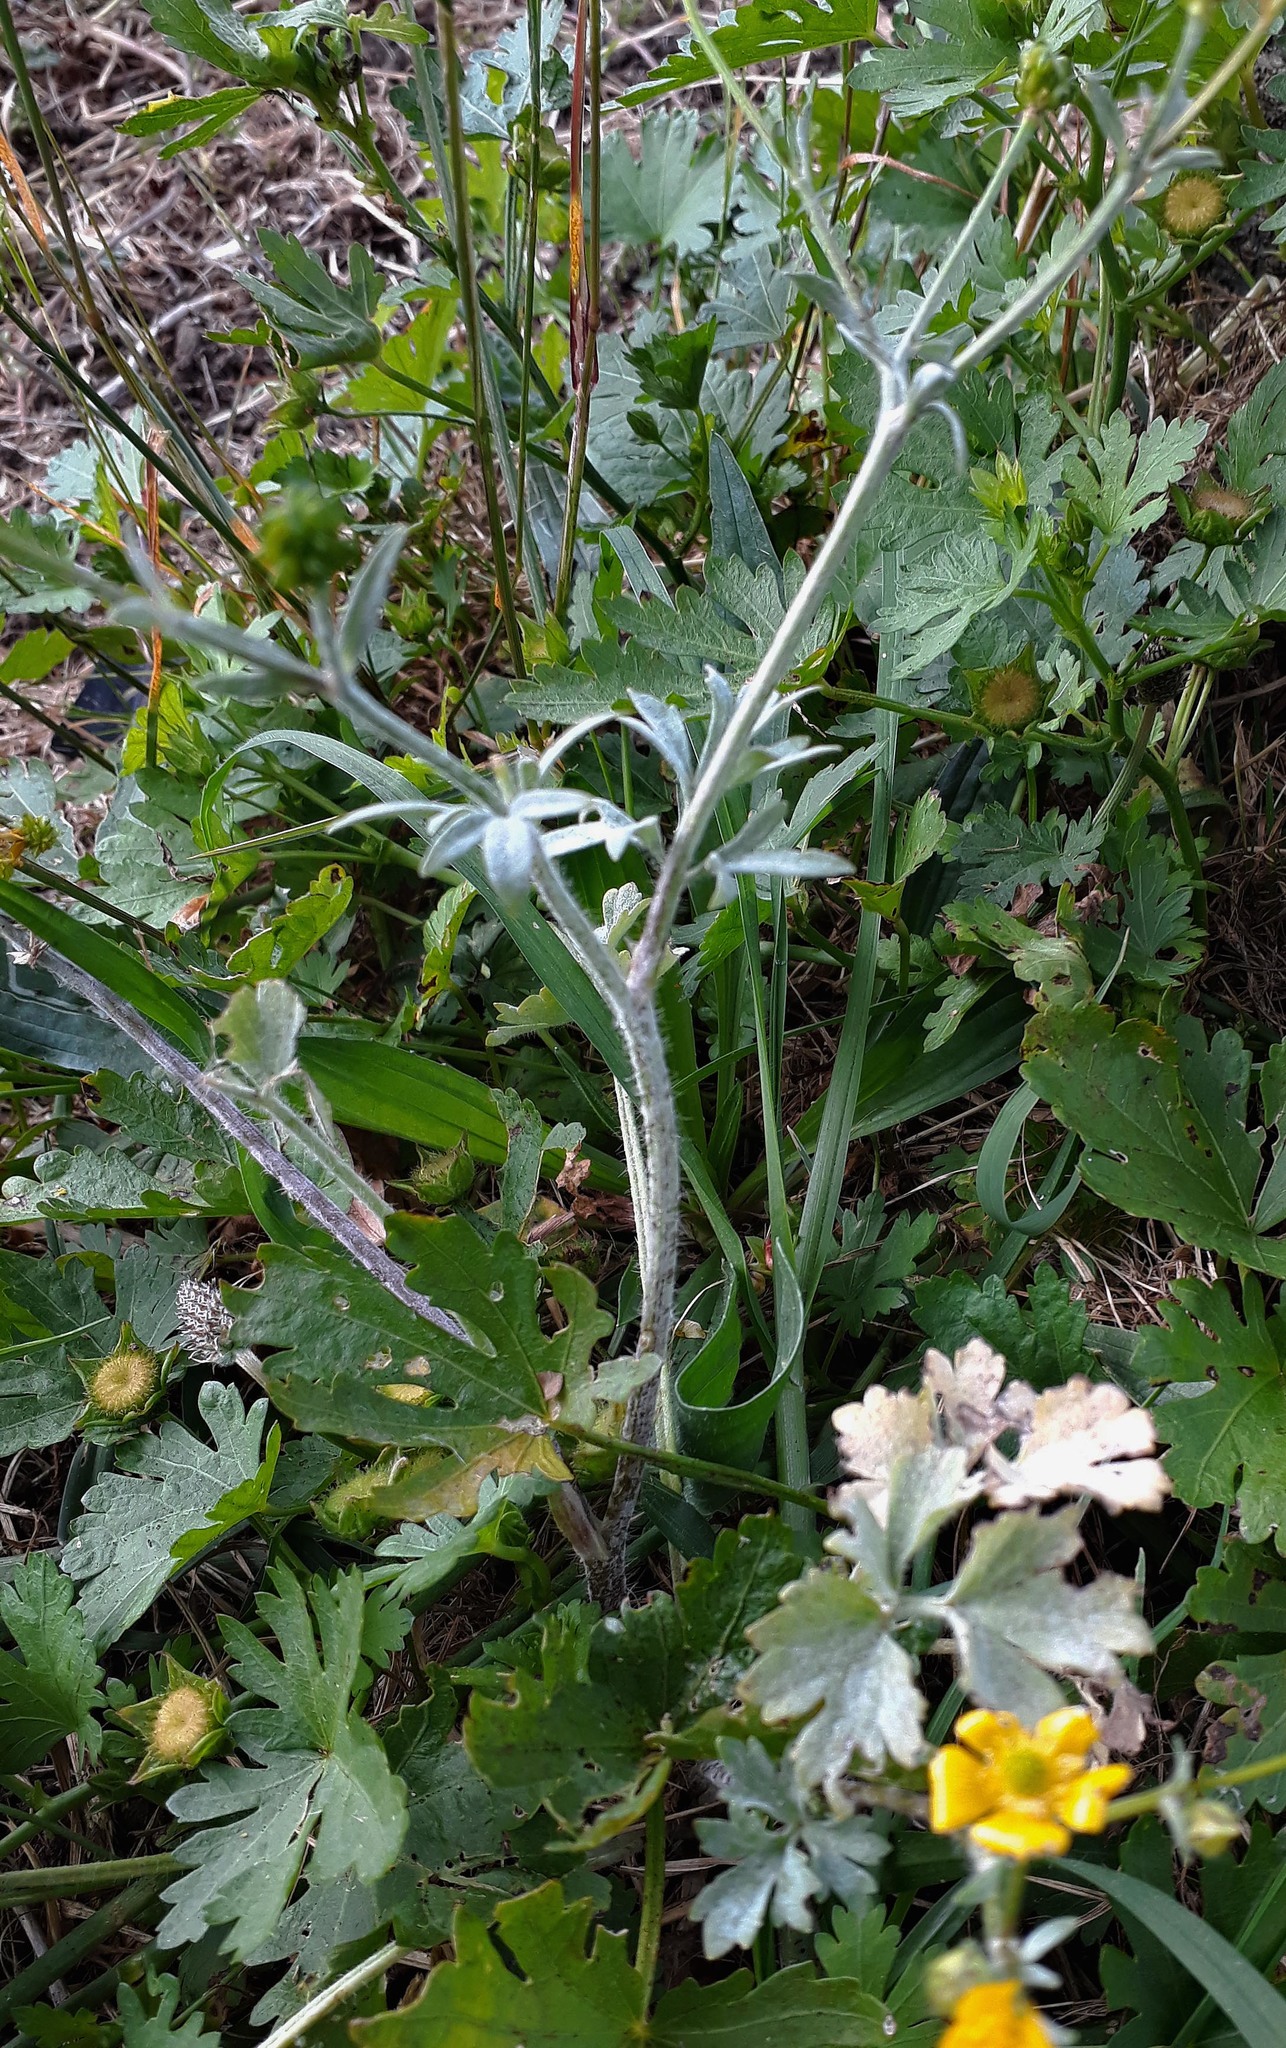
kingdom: Fungi
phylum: Ascomycota
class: Leotiomycetes
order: Helotiales
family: Erysiphaceae
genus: Erysiphe
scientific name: Erysiphe aquilegiae
